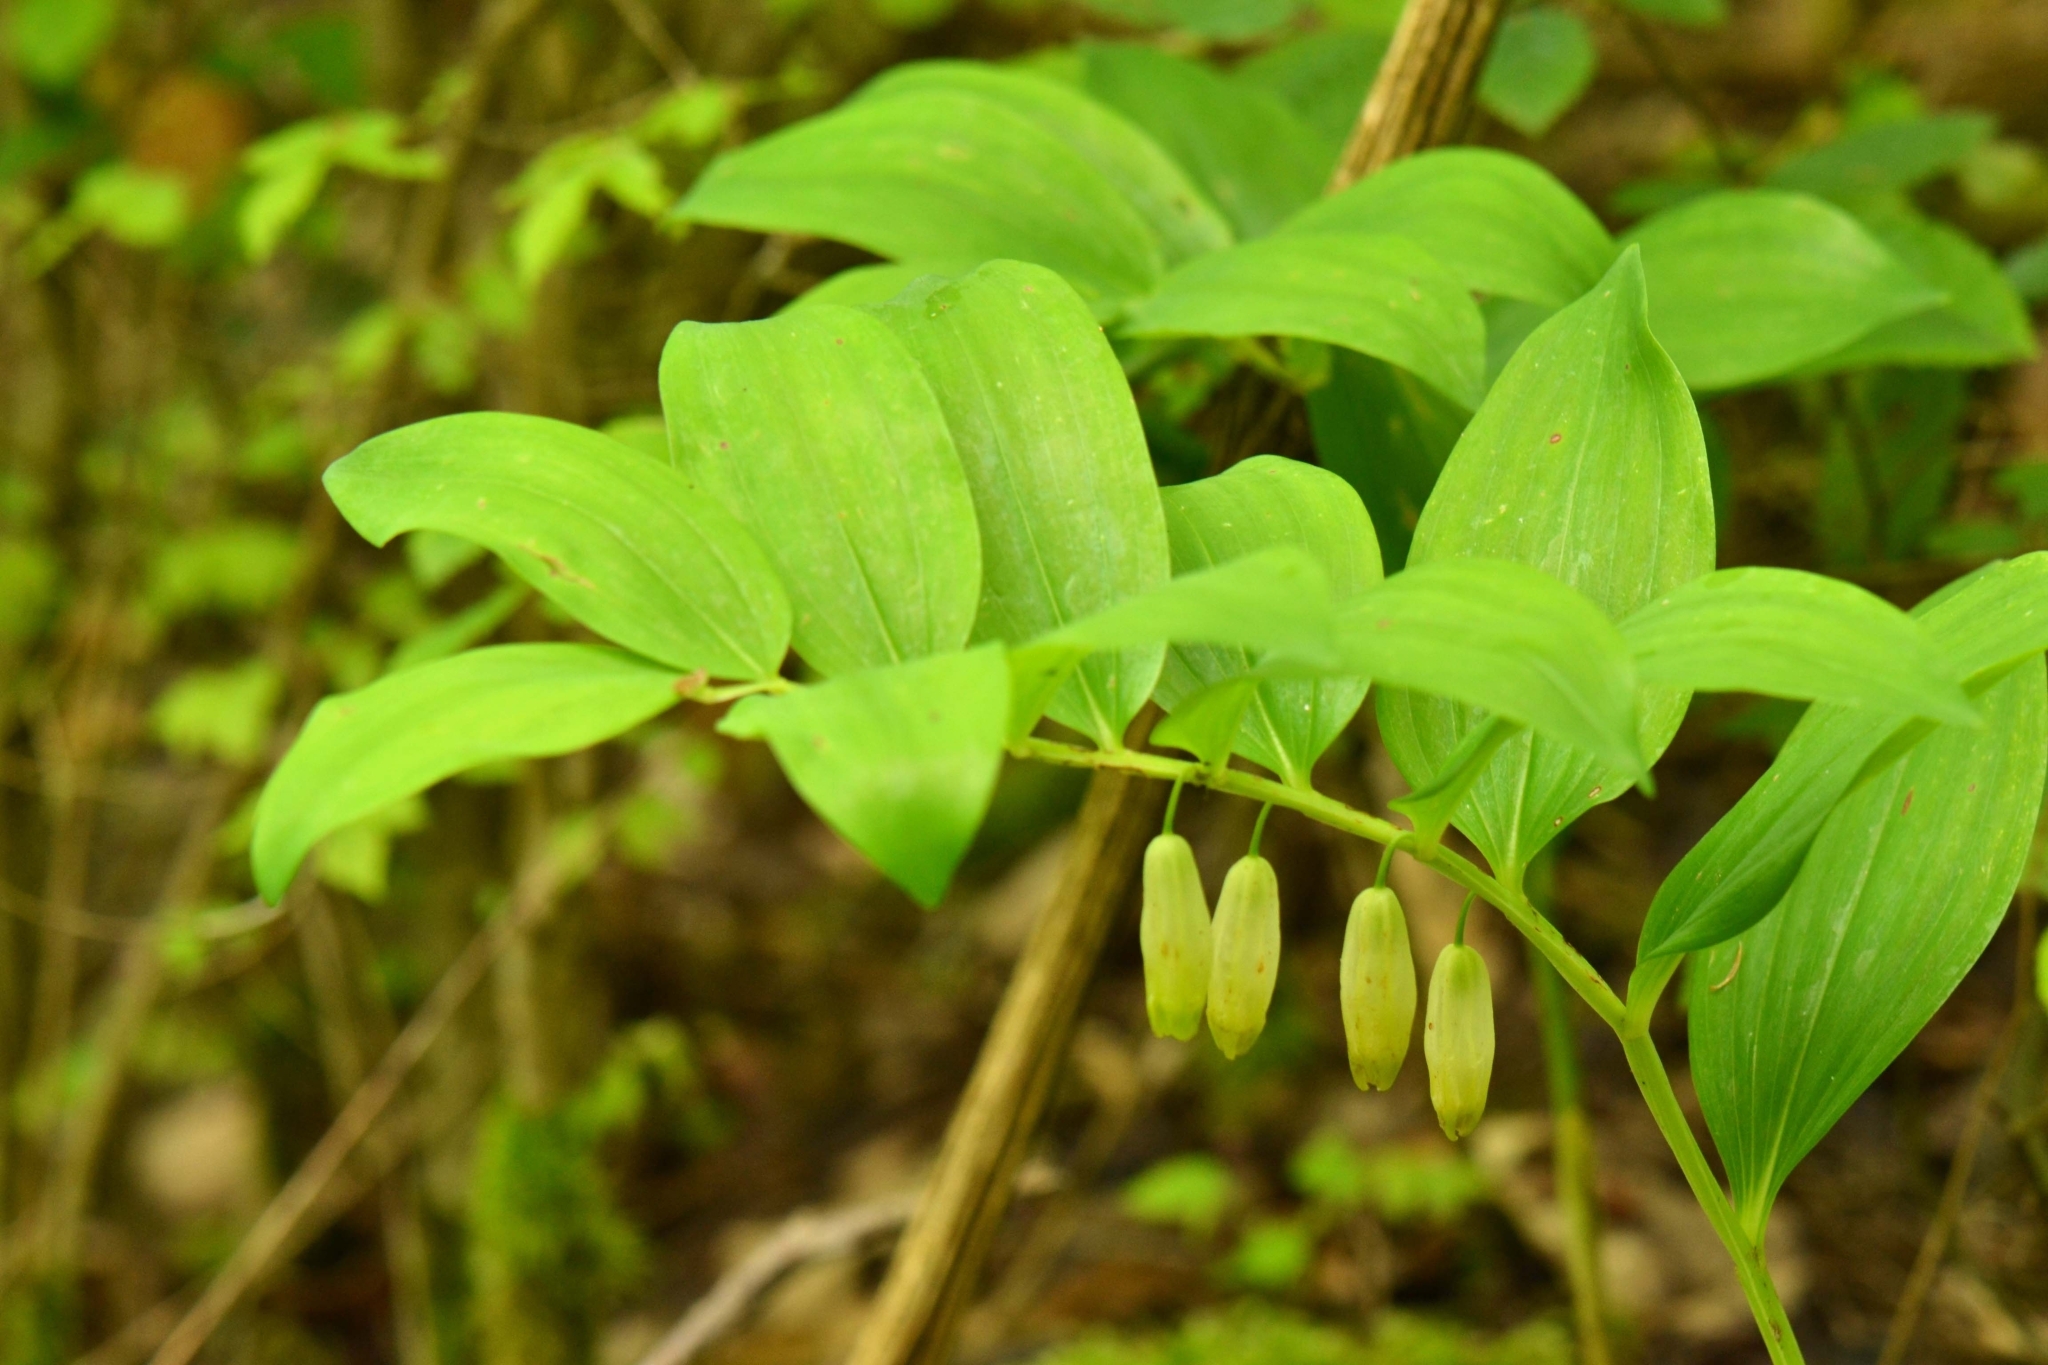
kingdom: Plantae
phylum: Tracheophyta
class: Liliopsida
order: Asparagales
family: Asparagaceae
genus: Polygonatum
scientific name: Polygonatum odoratum
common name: Angular solomon's-seal
